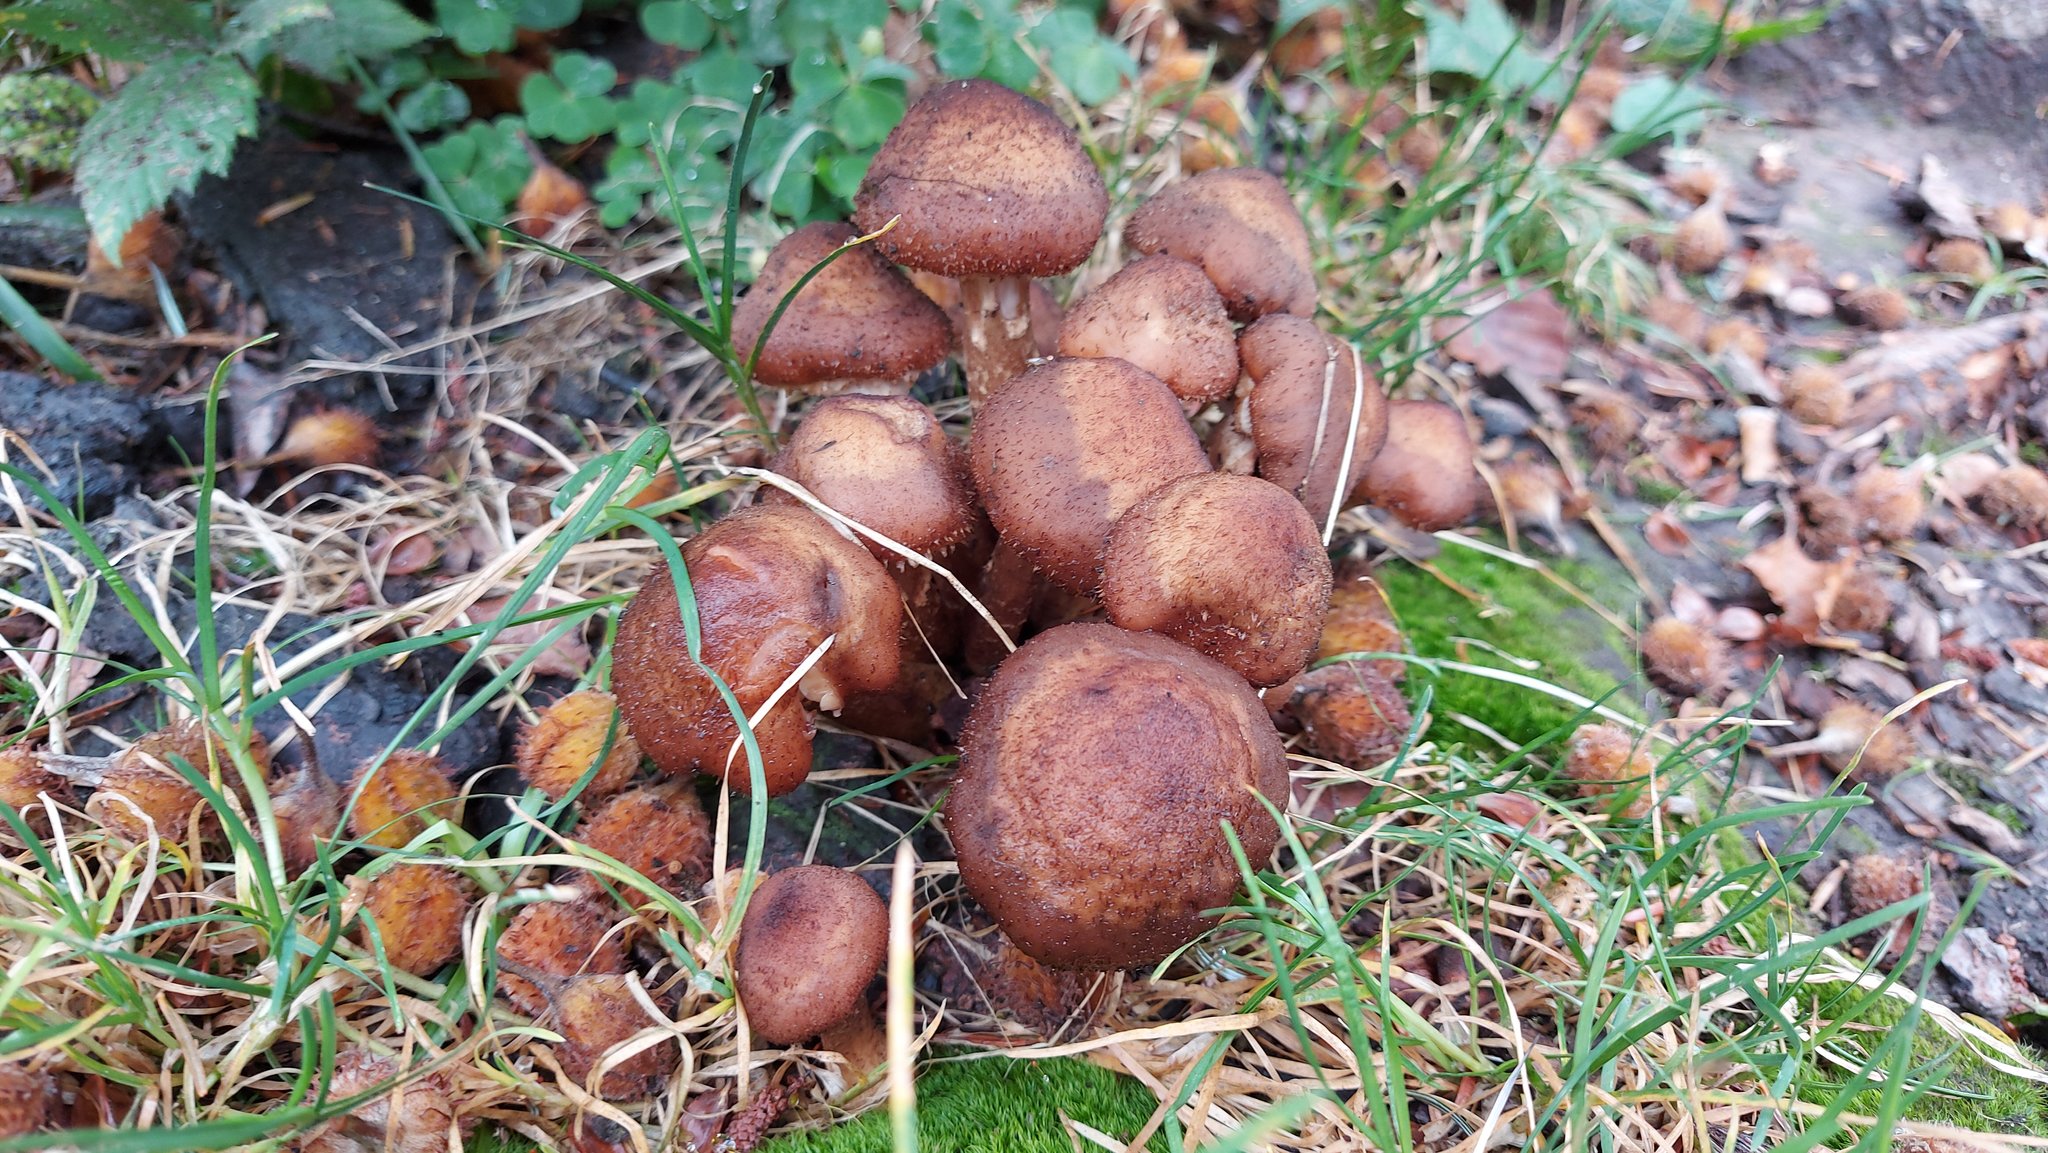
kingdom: Fungi
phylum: Basidiomycota
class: Agaricomycetes
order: Agaricales
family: Physalacriaceae
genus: Armillaria
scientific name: Armillaria ostoyae
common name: Dark honey fungus
